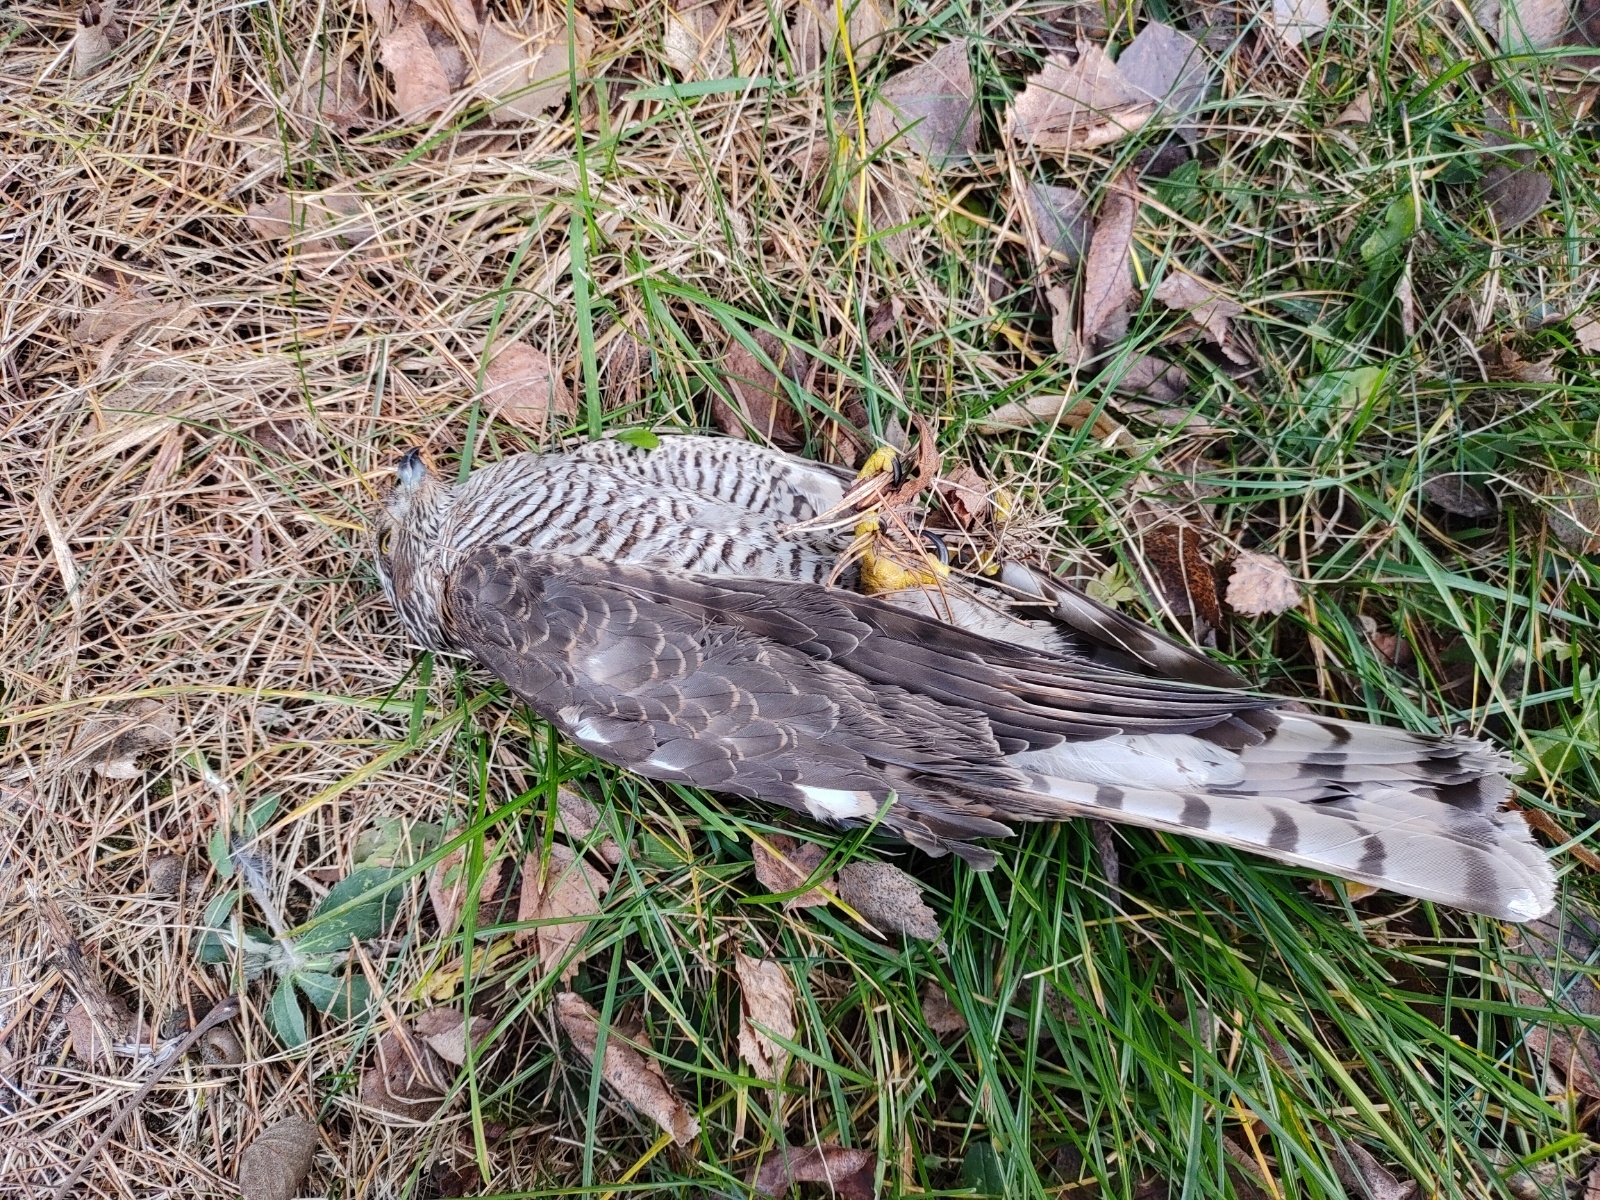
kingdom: Animalia
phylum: Chordata
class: Aves
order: Accipitriformes
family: Accipitridae
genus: Accipiter
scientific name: Accipiter nisus
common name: Eurasian sparrowhawk
